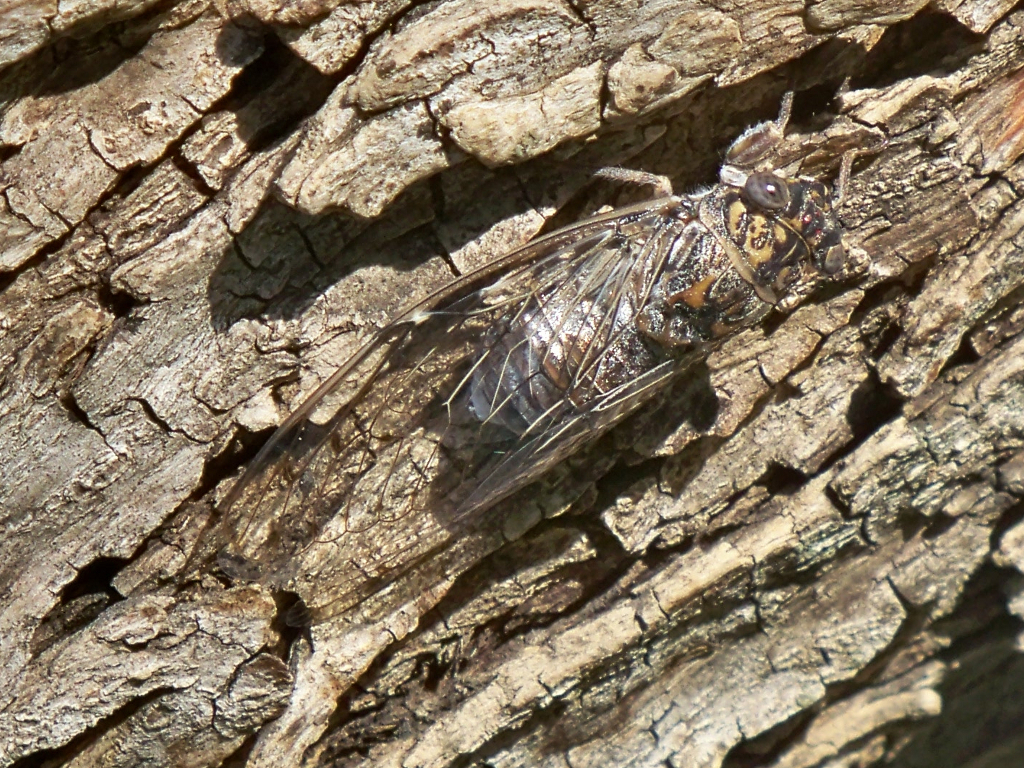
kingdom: Animalia
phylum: Arthropoda
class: Insecta
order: Hemiptera
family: Cicadidae
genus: Cicada
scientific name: Cicada orni
